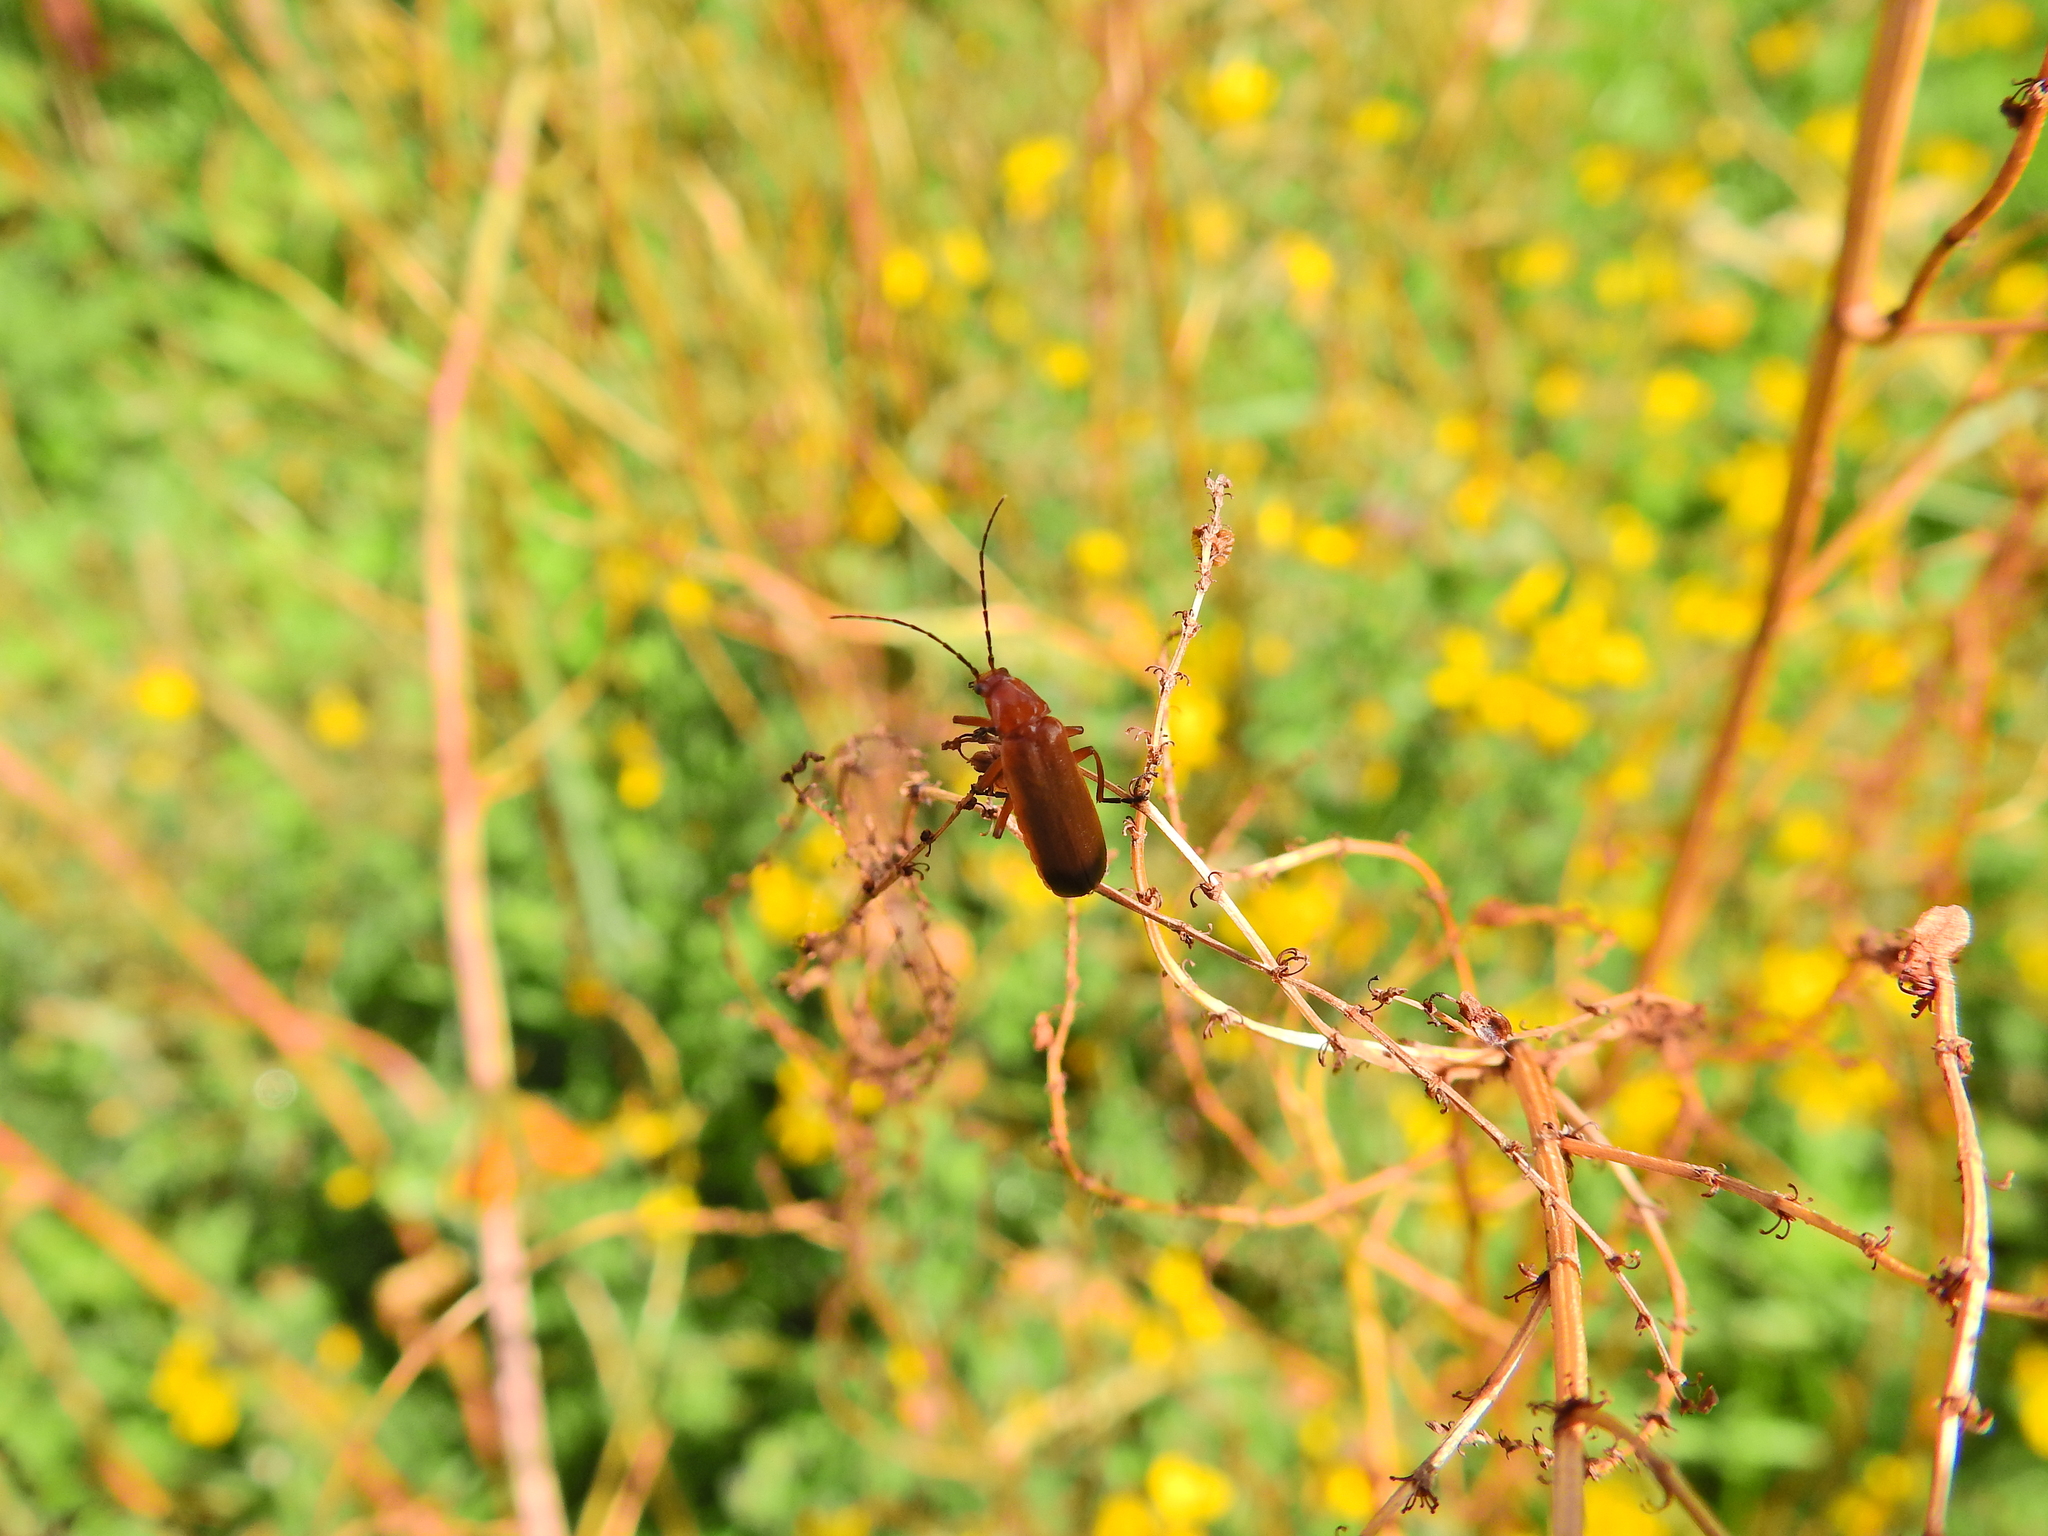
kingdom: Animalia
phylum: Arthropoda
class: Insecta
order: Coleoptera
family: Cantharidae
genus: Rhagonycha
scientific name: Rhagonycha fulva
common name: Common red soldier beetle
